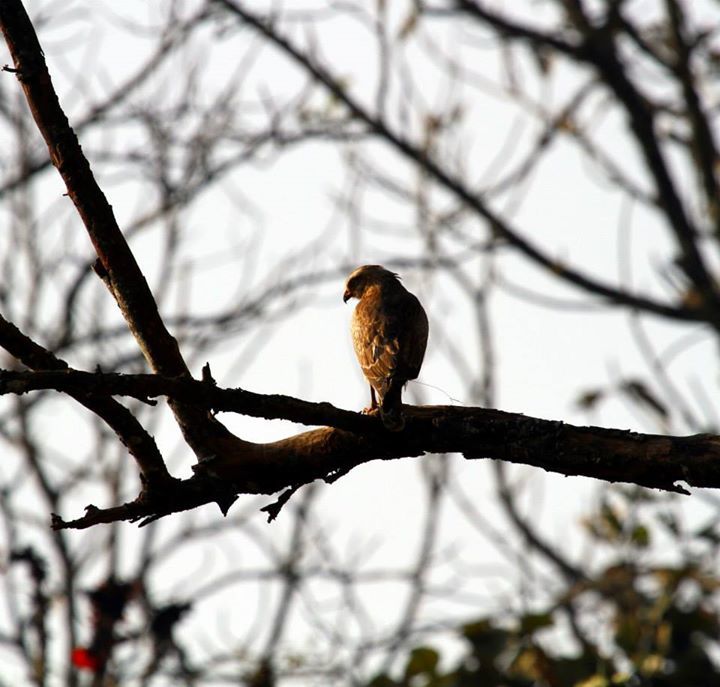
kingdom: Animalia
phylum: Chordata
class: Aves
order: Accipitriformes
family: Accipitridae
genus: Butastur
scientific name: Butastur teesa
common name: White-eyed buzzard
